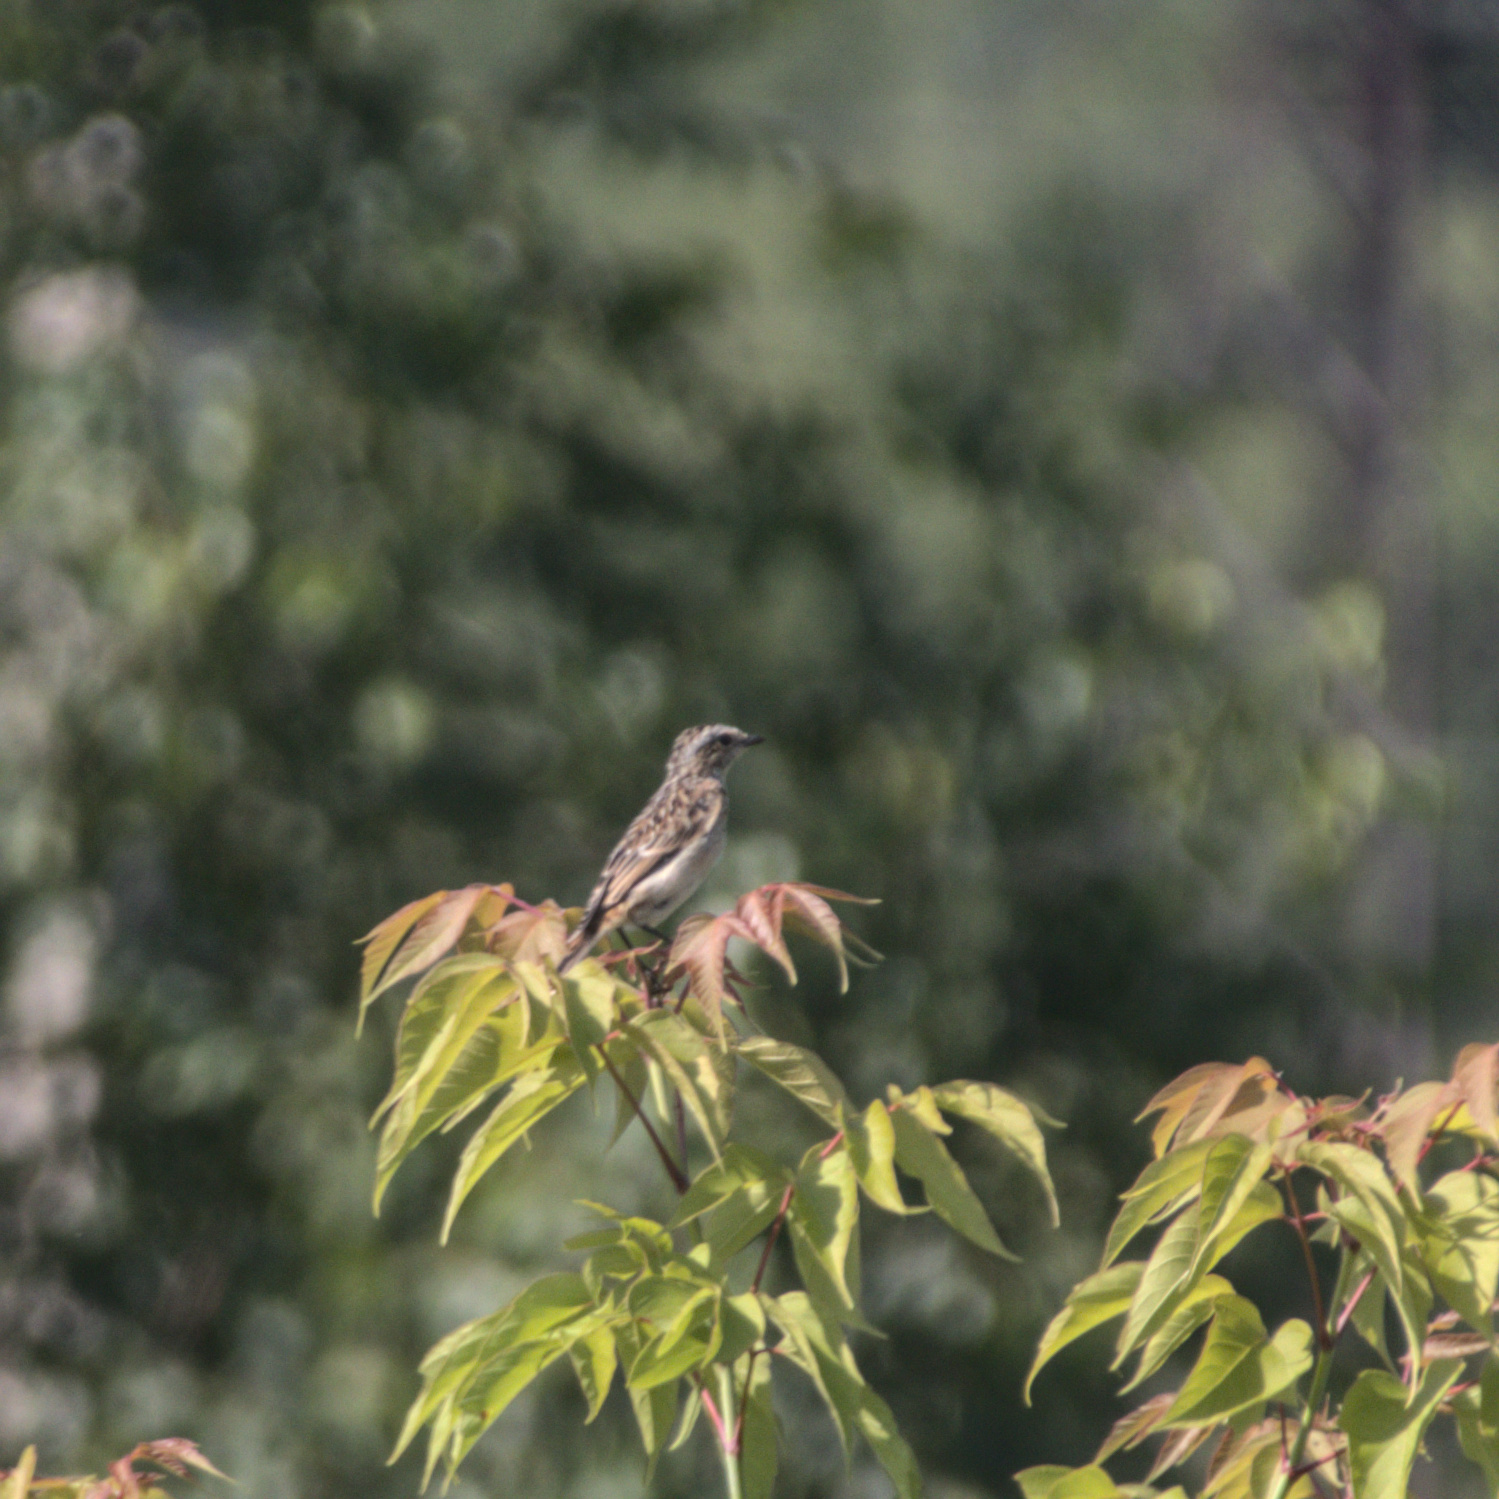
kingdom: Animalia
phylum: Chordata
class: Aves
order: Passeriformes
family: Muscicapidae
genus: Saxicola
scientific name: Saxicola rubetra
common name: Whinchat
